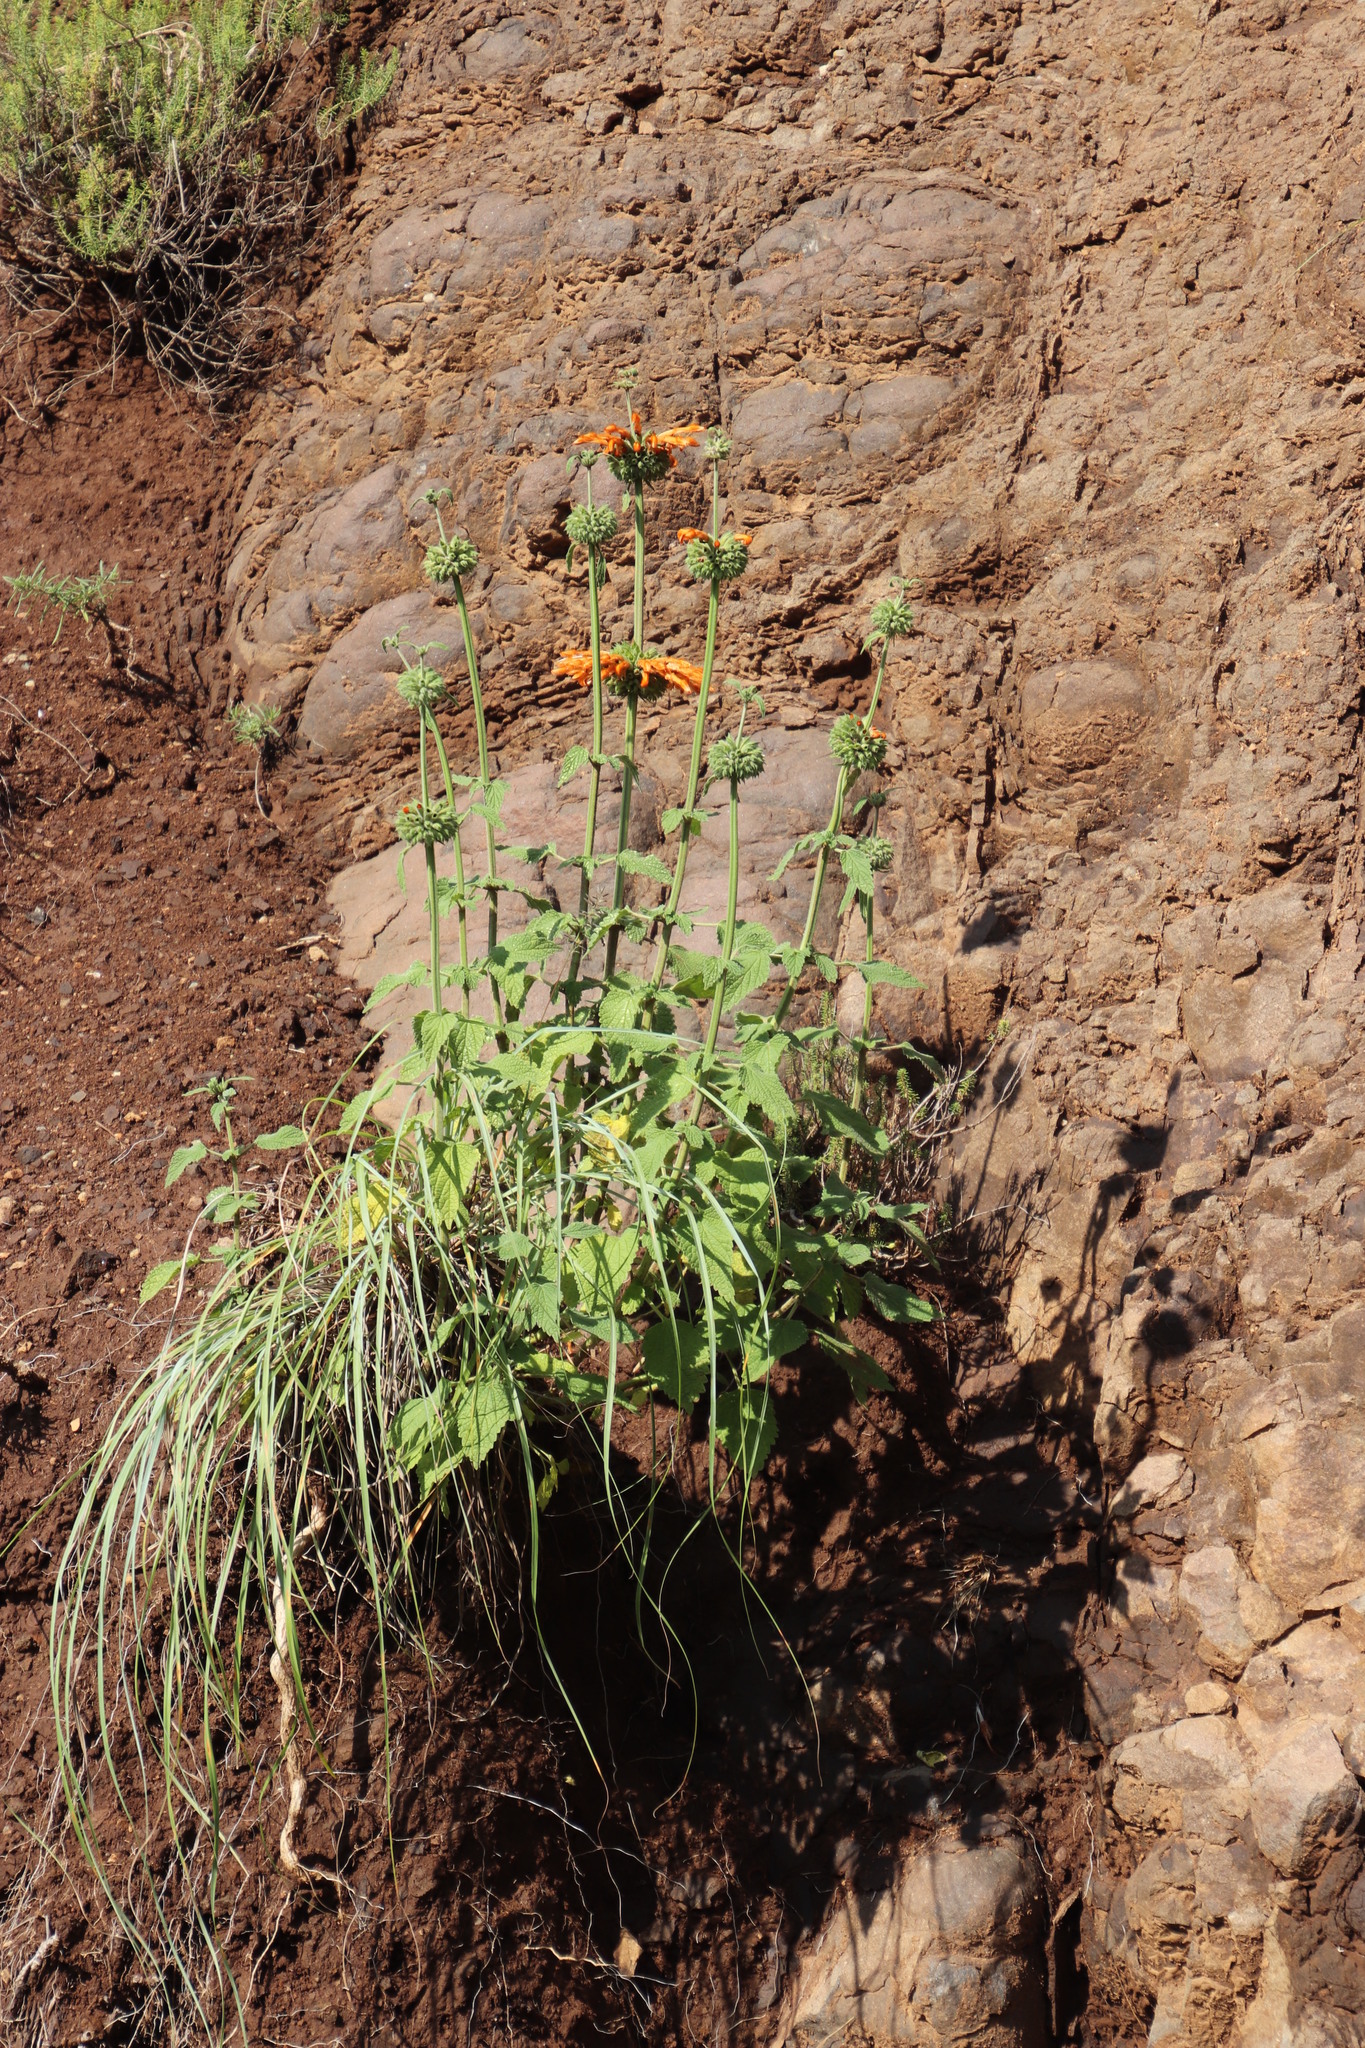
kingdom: Plantae
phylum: Tracheophyta
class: Magnoliopsida
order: Lamiales
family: Lamiaceae
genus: Leonotis
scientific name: Leonotis ocymifolia
